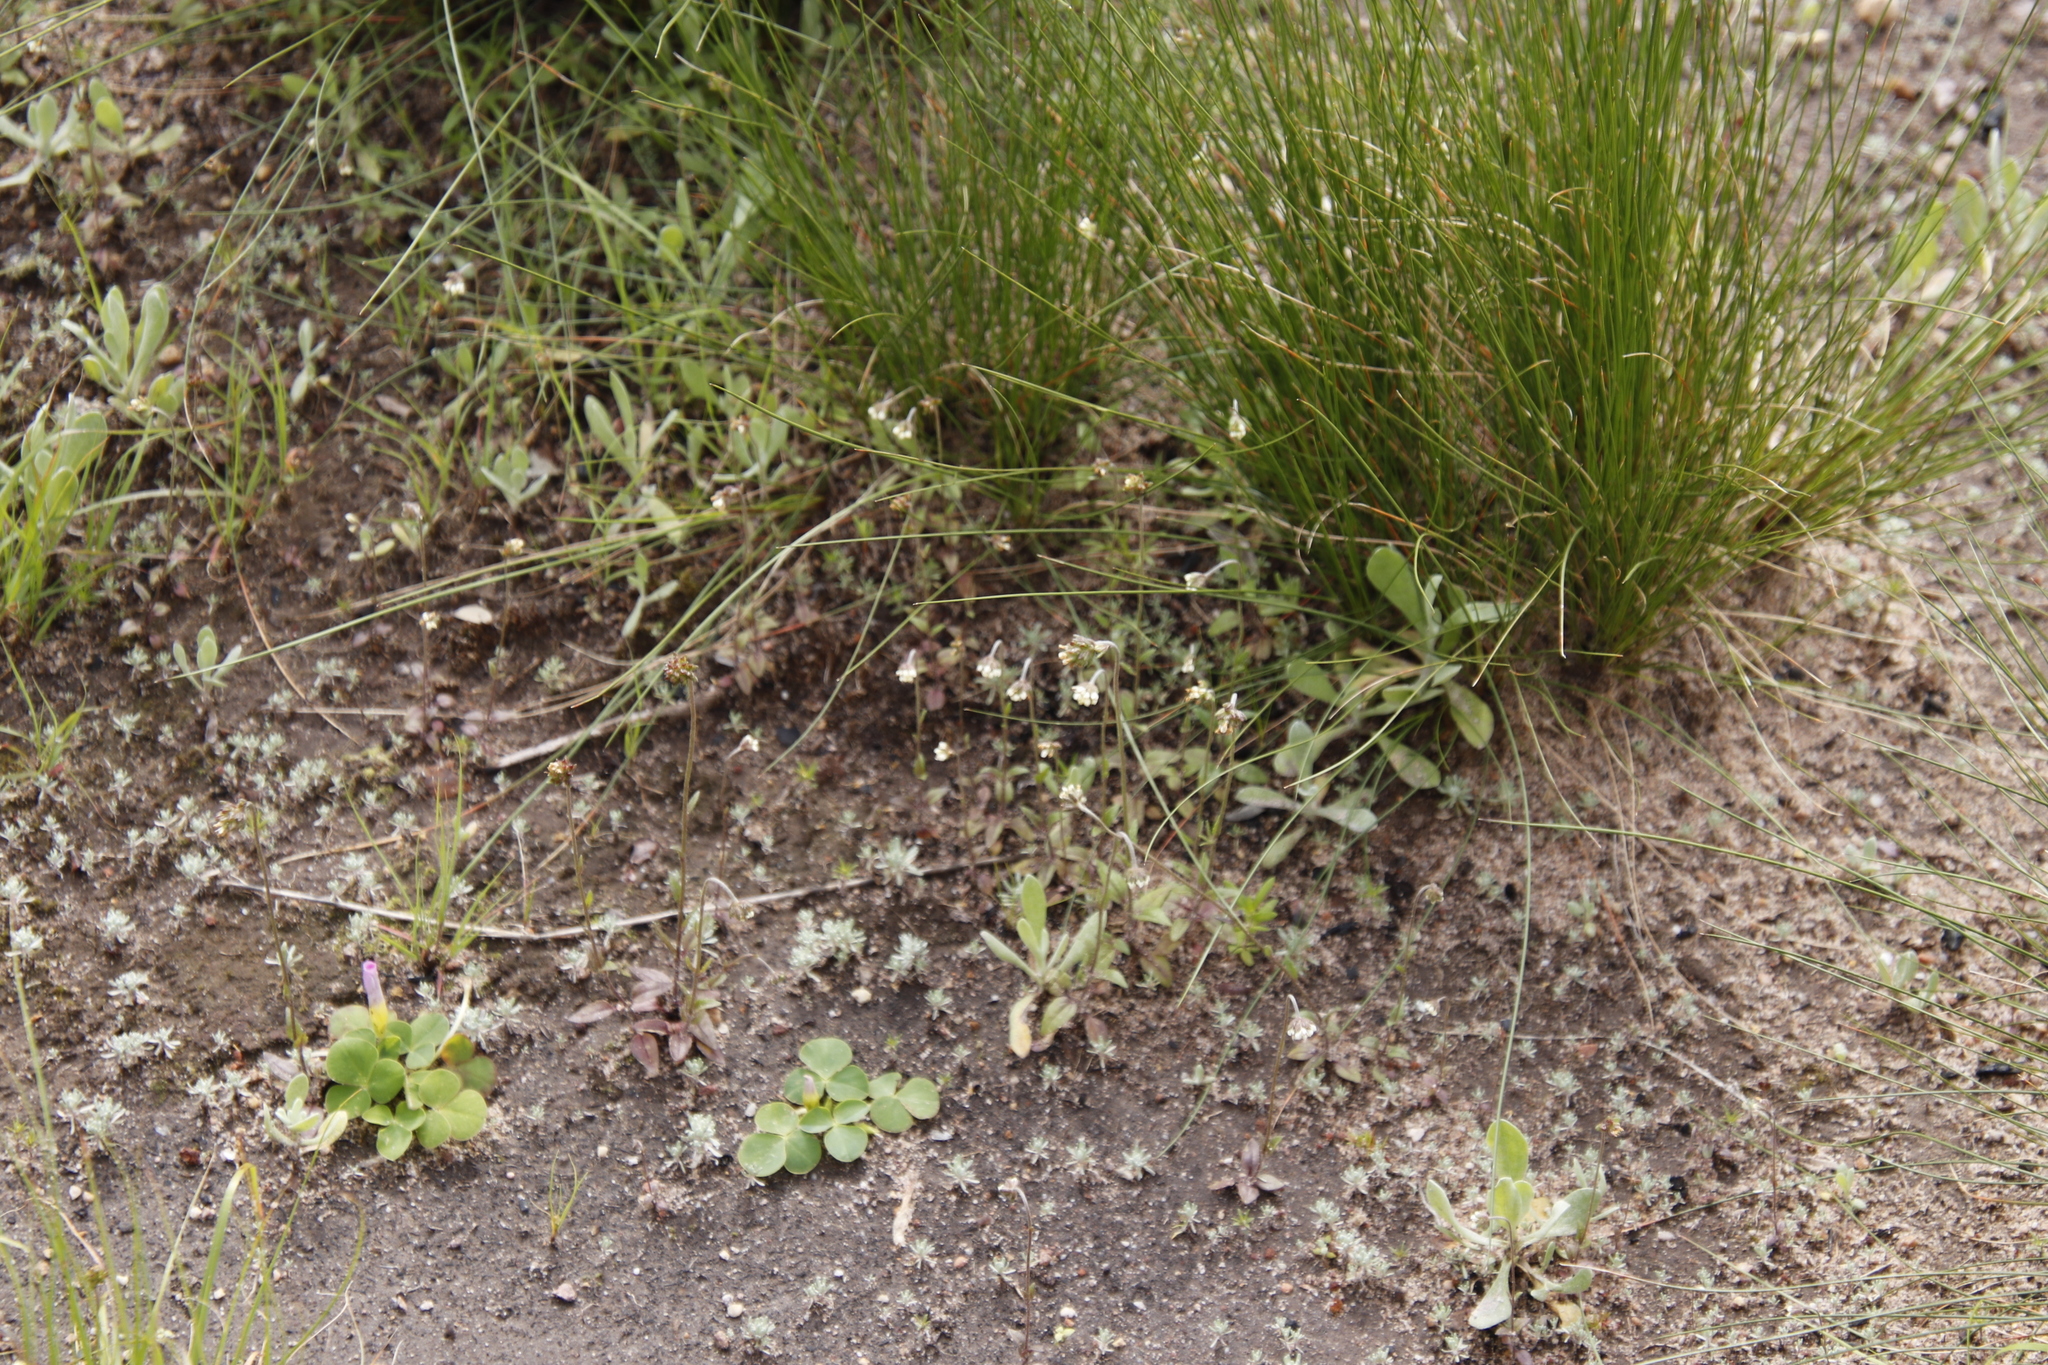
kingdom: Plantae
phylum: Tracheophyta
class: Magnoliopsida
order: Asterales
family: Asteraceae
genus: Lasiopogon
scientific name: Lasiopogon brachypterus
